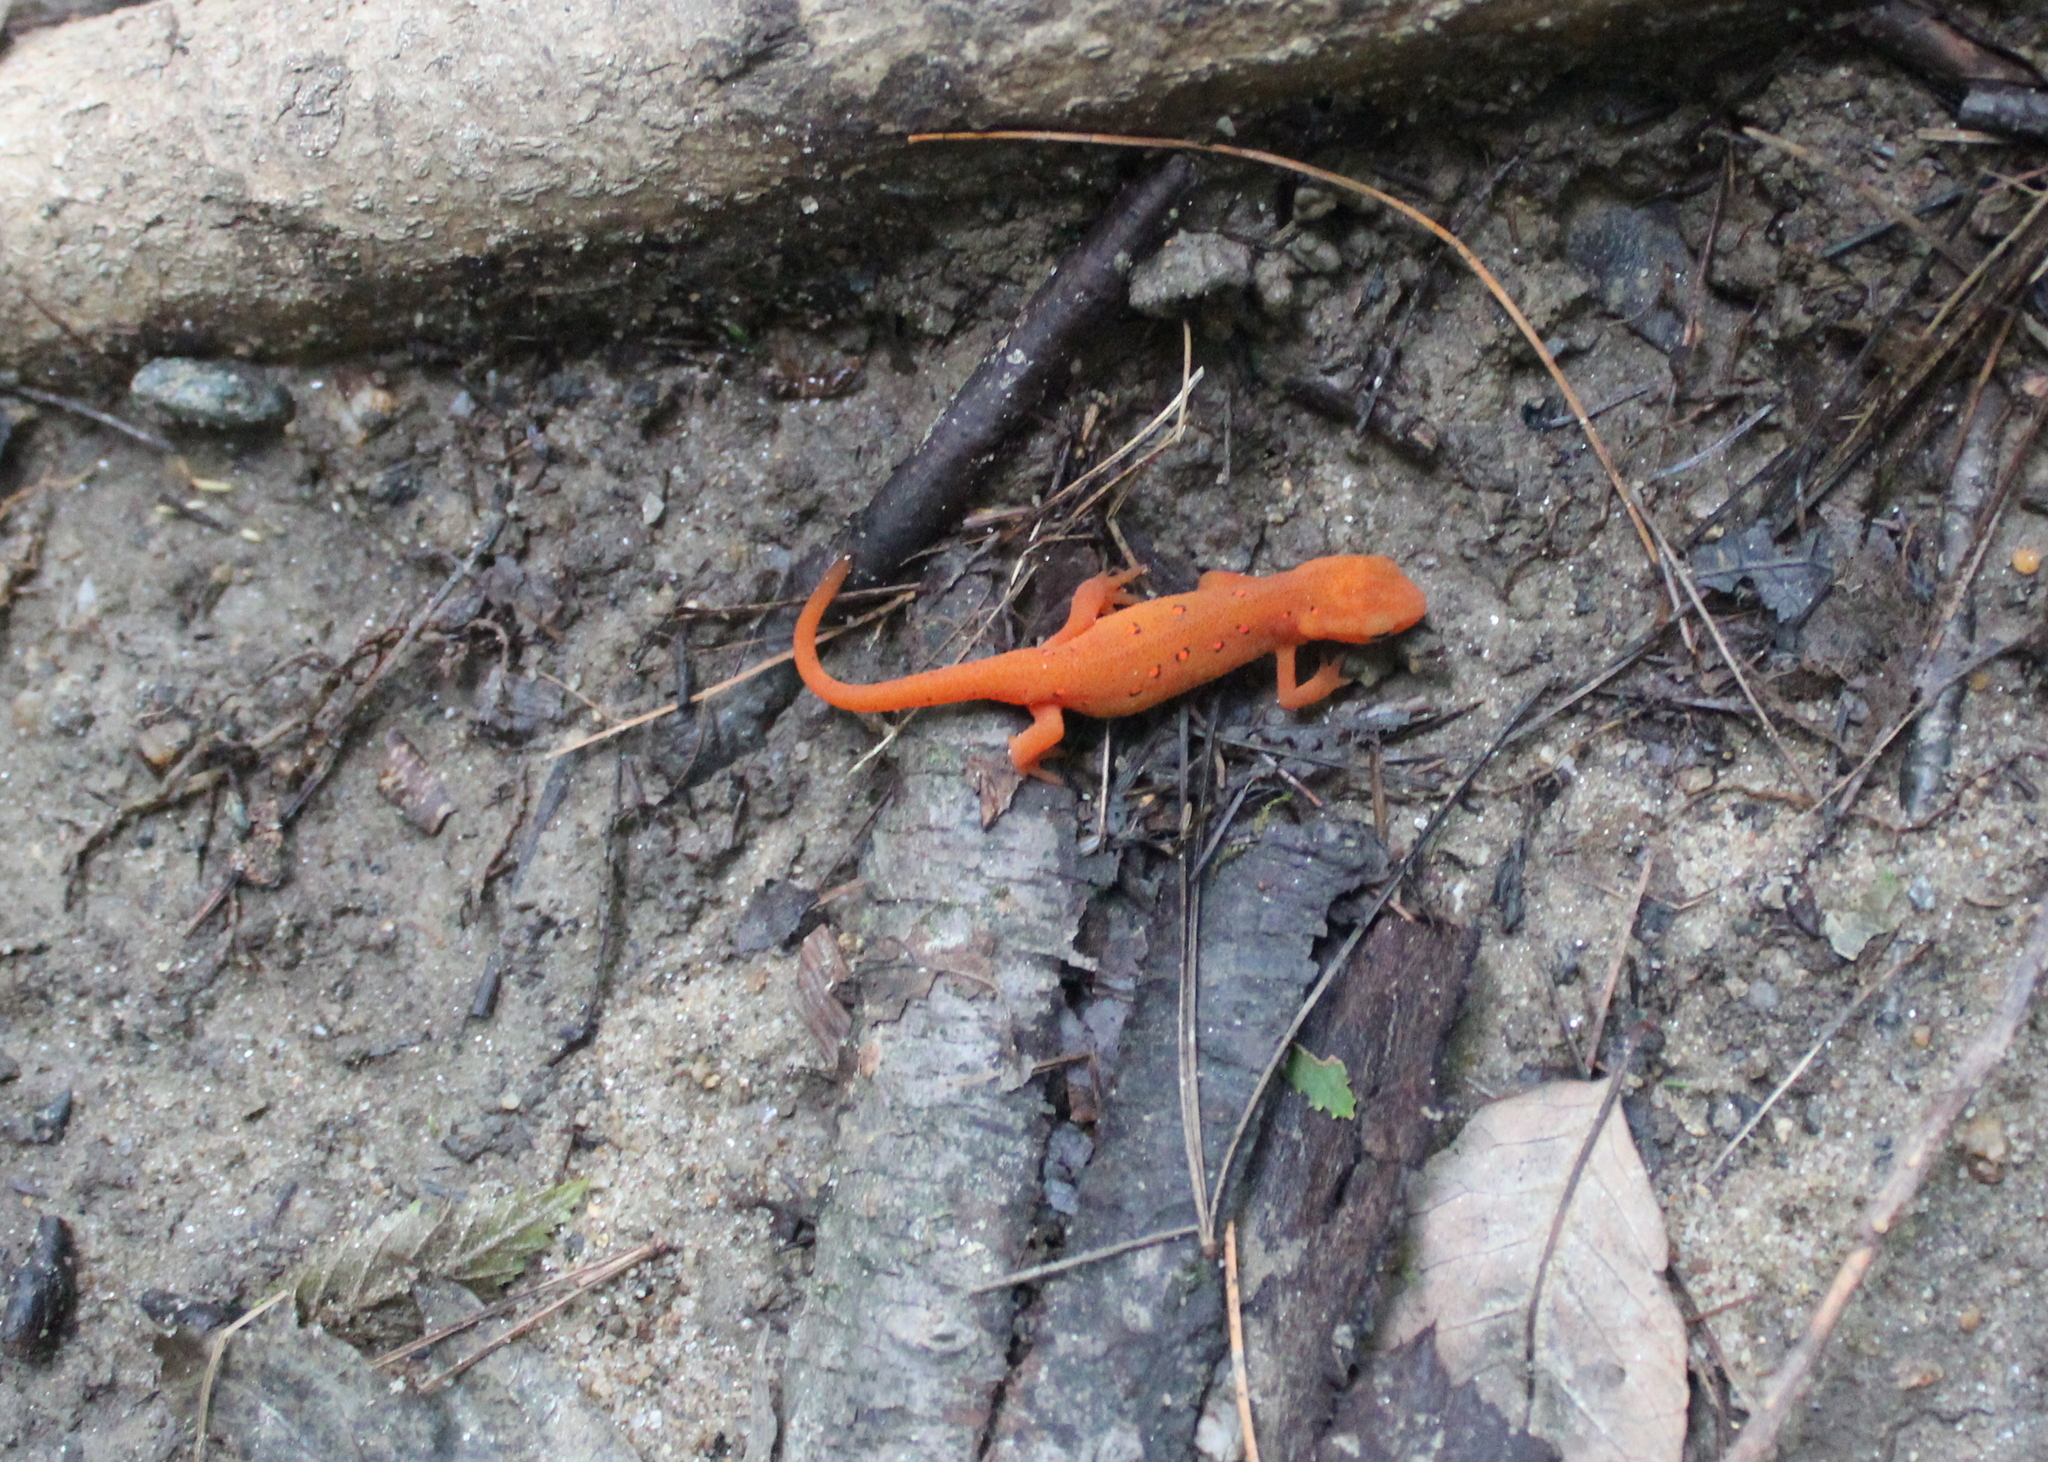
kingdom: Animalia
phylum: Chordata
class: Amphibia
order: Caudata
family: Salamandridae
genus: Notophthalmus
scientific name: Notophthalmus viridescens
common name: Eastern newt
